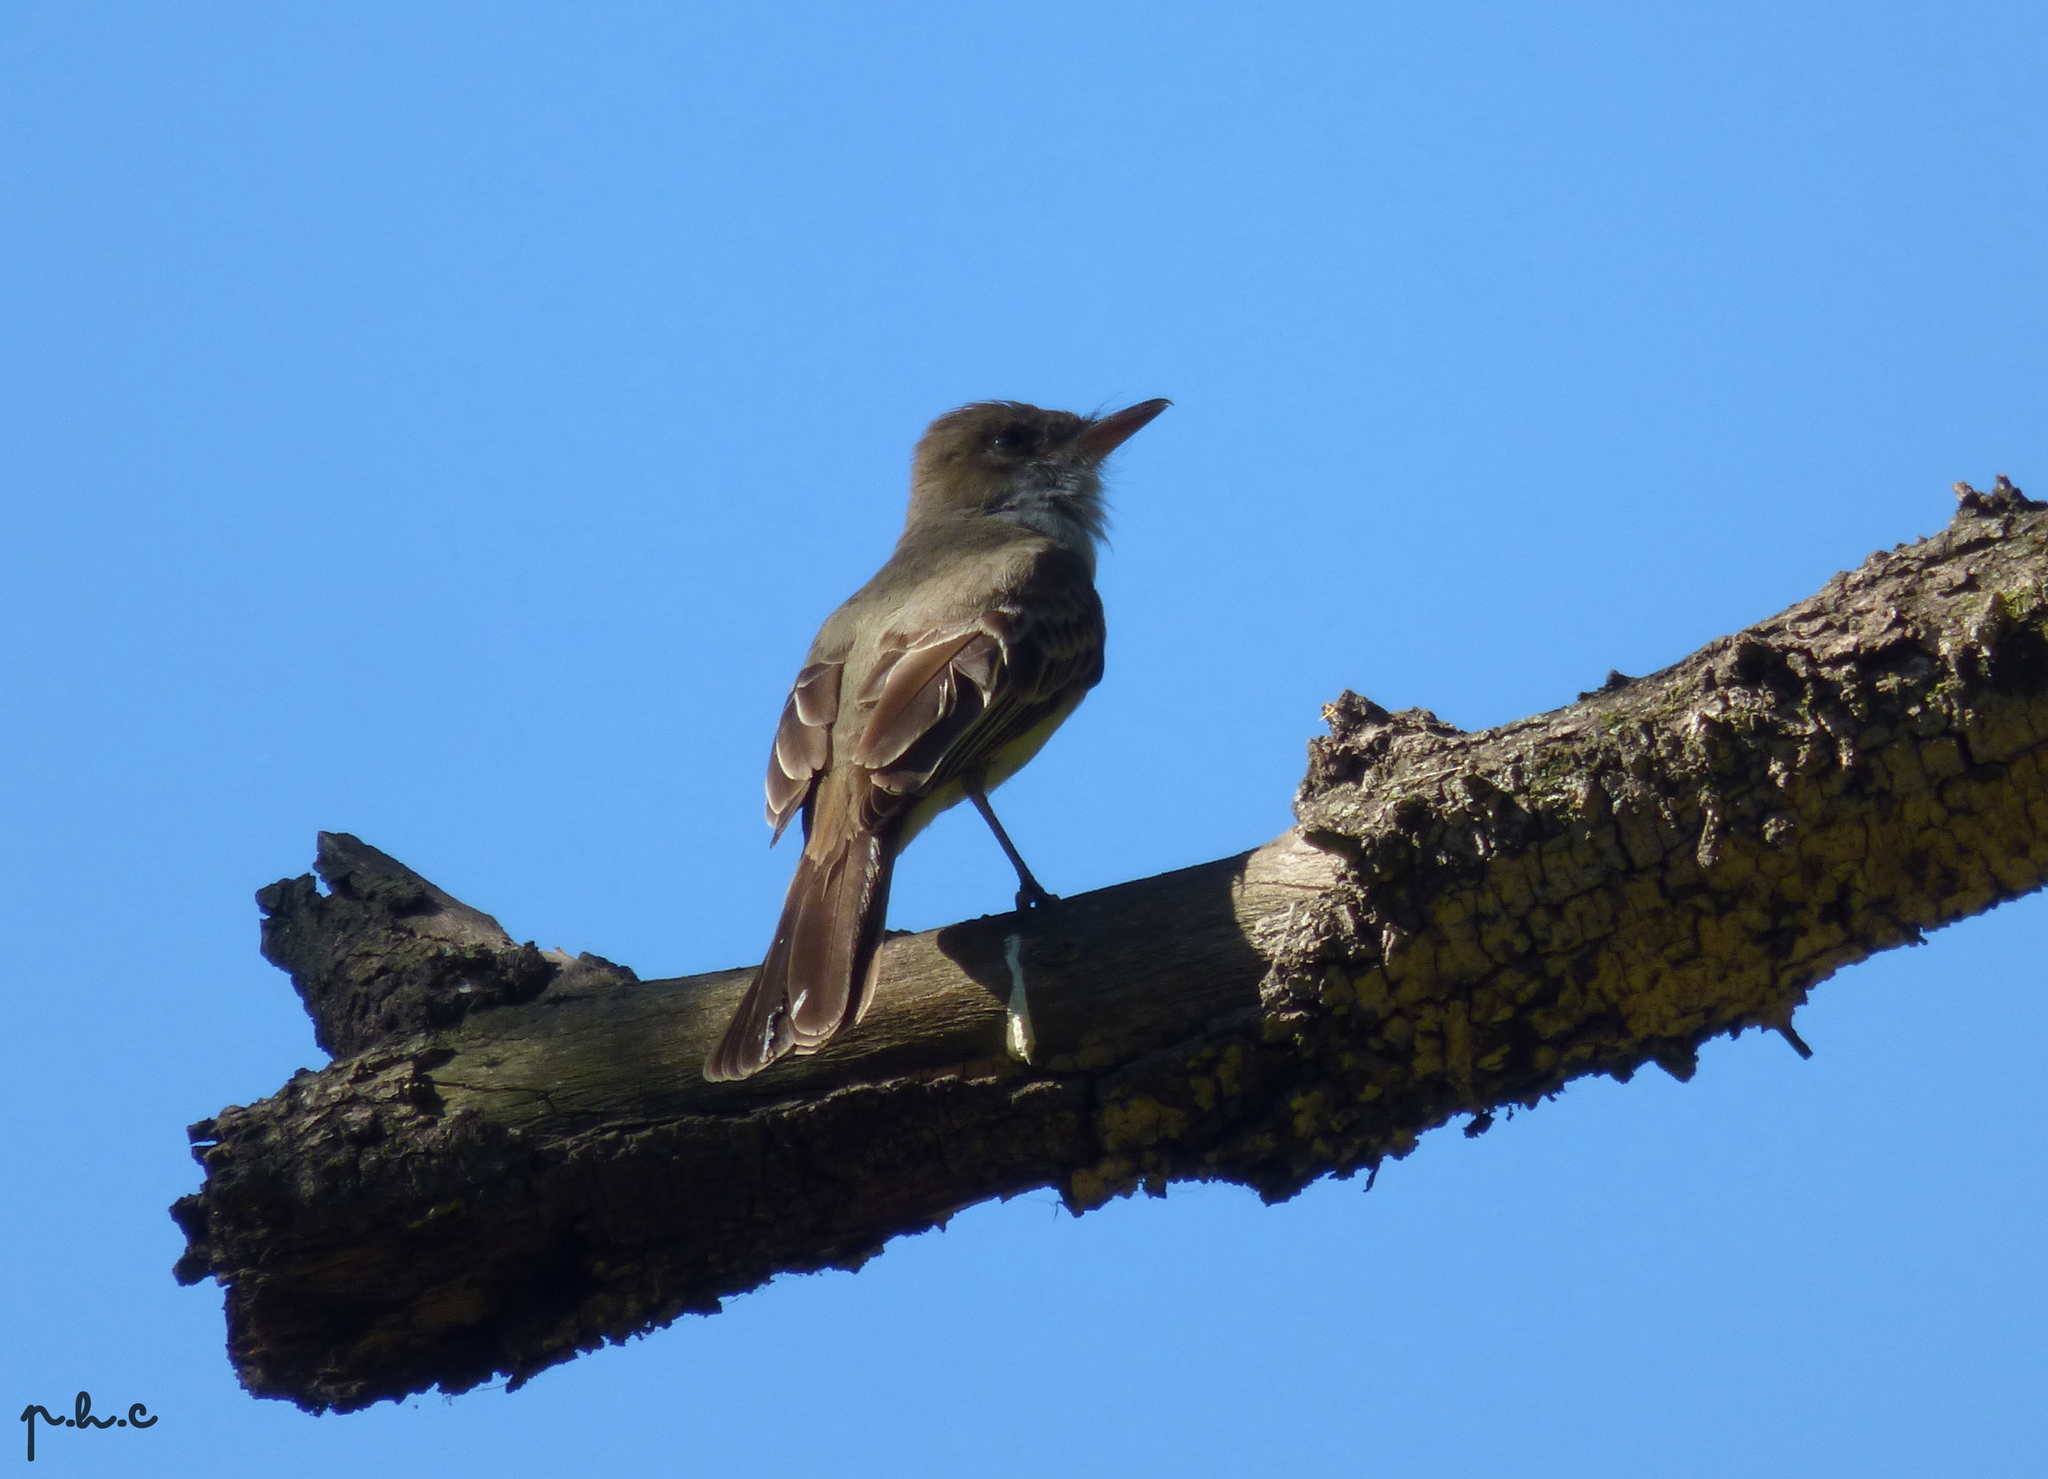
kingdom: Animalia
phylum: Chordata
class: Aves
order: Passeriformes
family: Tyrannidae
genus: Myiarchus
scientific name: Myiarchus swainsoni
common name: Swainson's flycatcher
